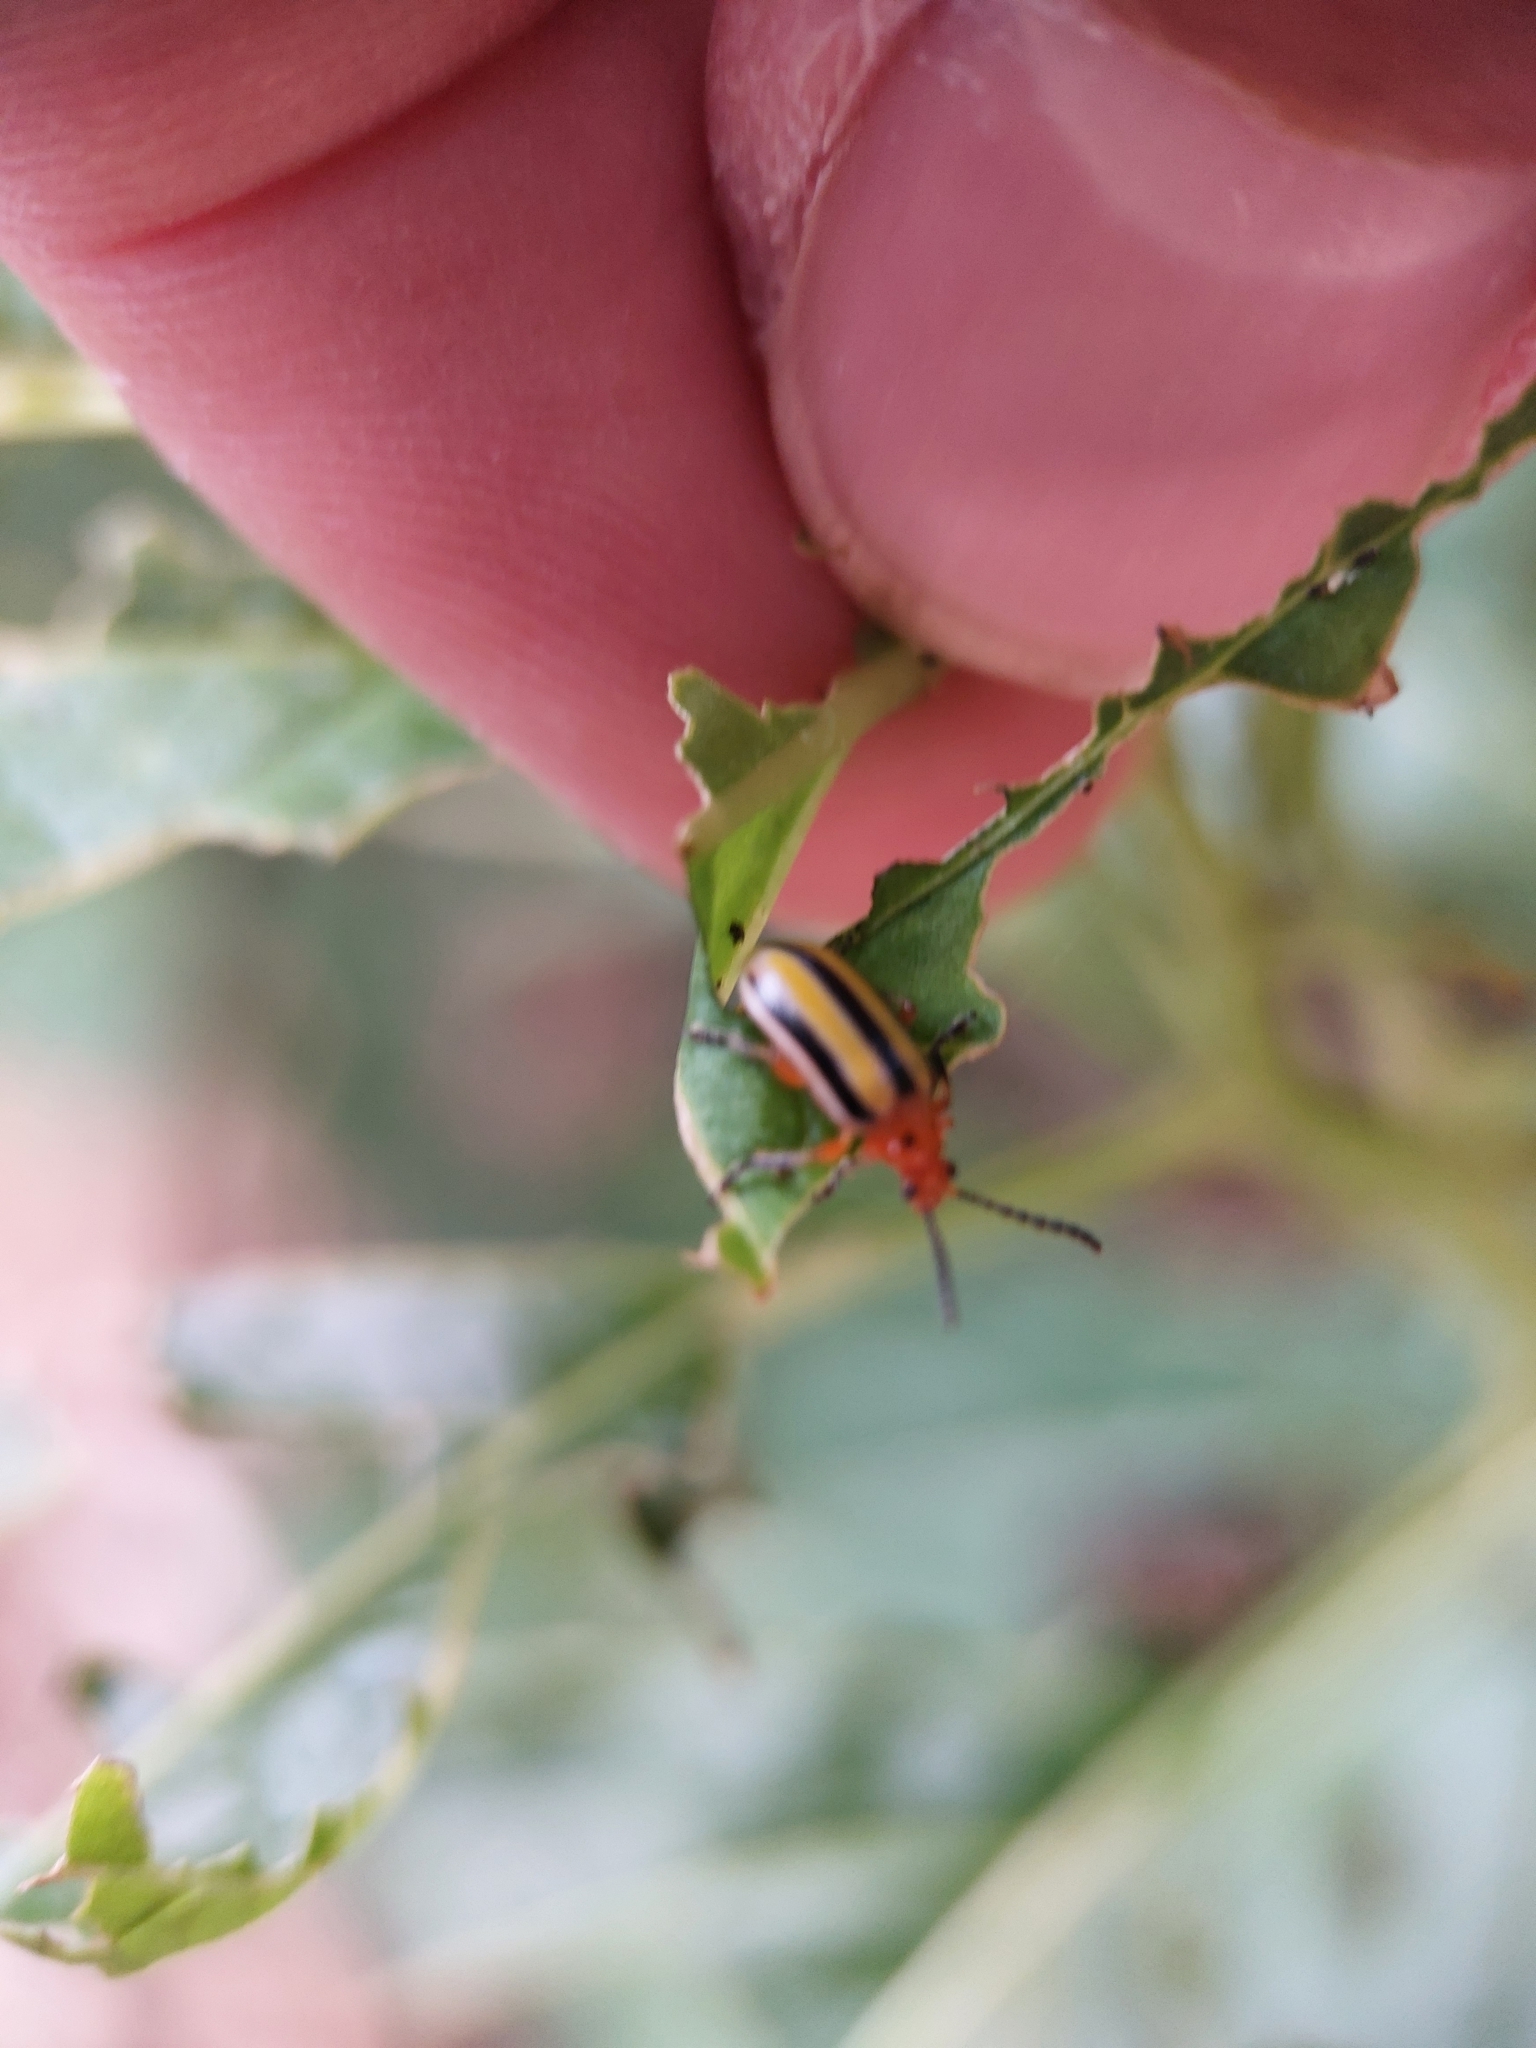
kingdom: Animalia
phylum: Arthropoda
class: Insecta
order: Coleoptera
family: Chrysomelidae
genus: Lema
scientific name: Lema daturaphila
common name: Leaf beetle
